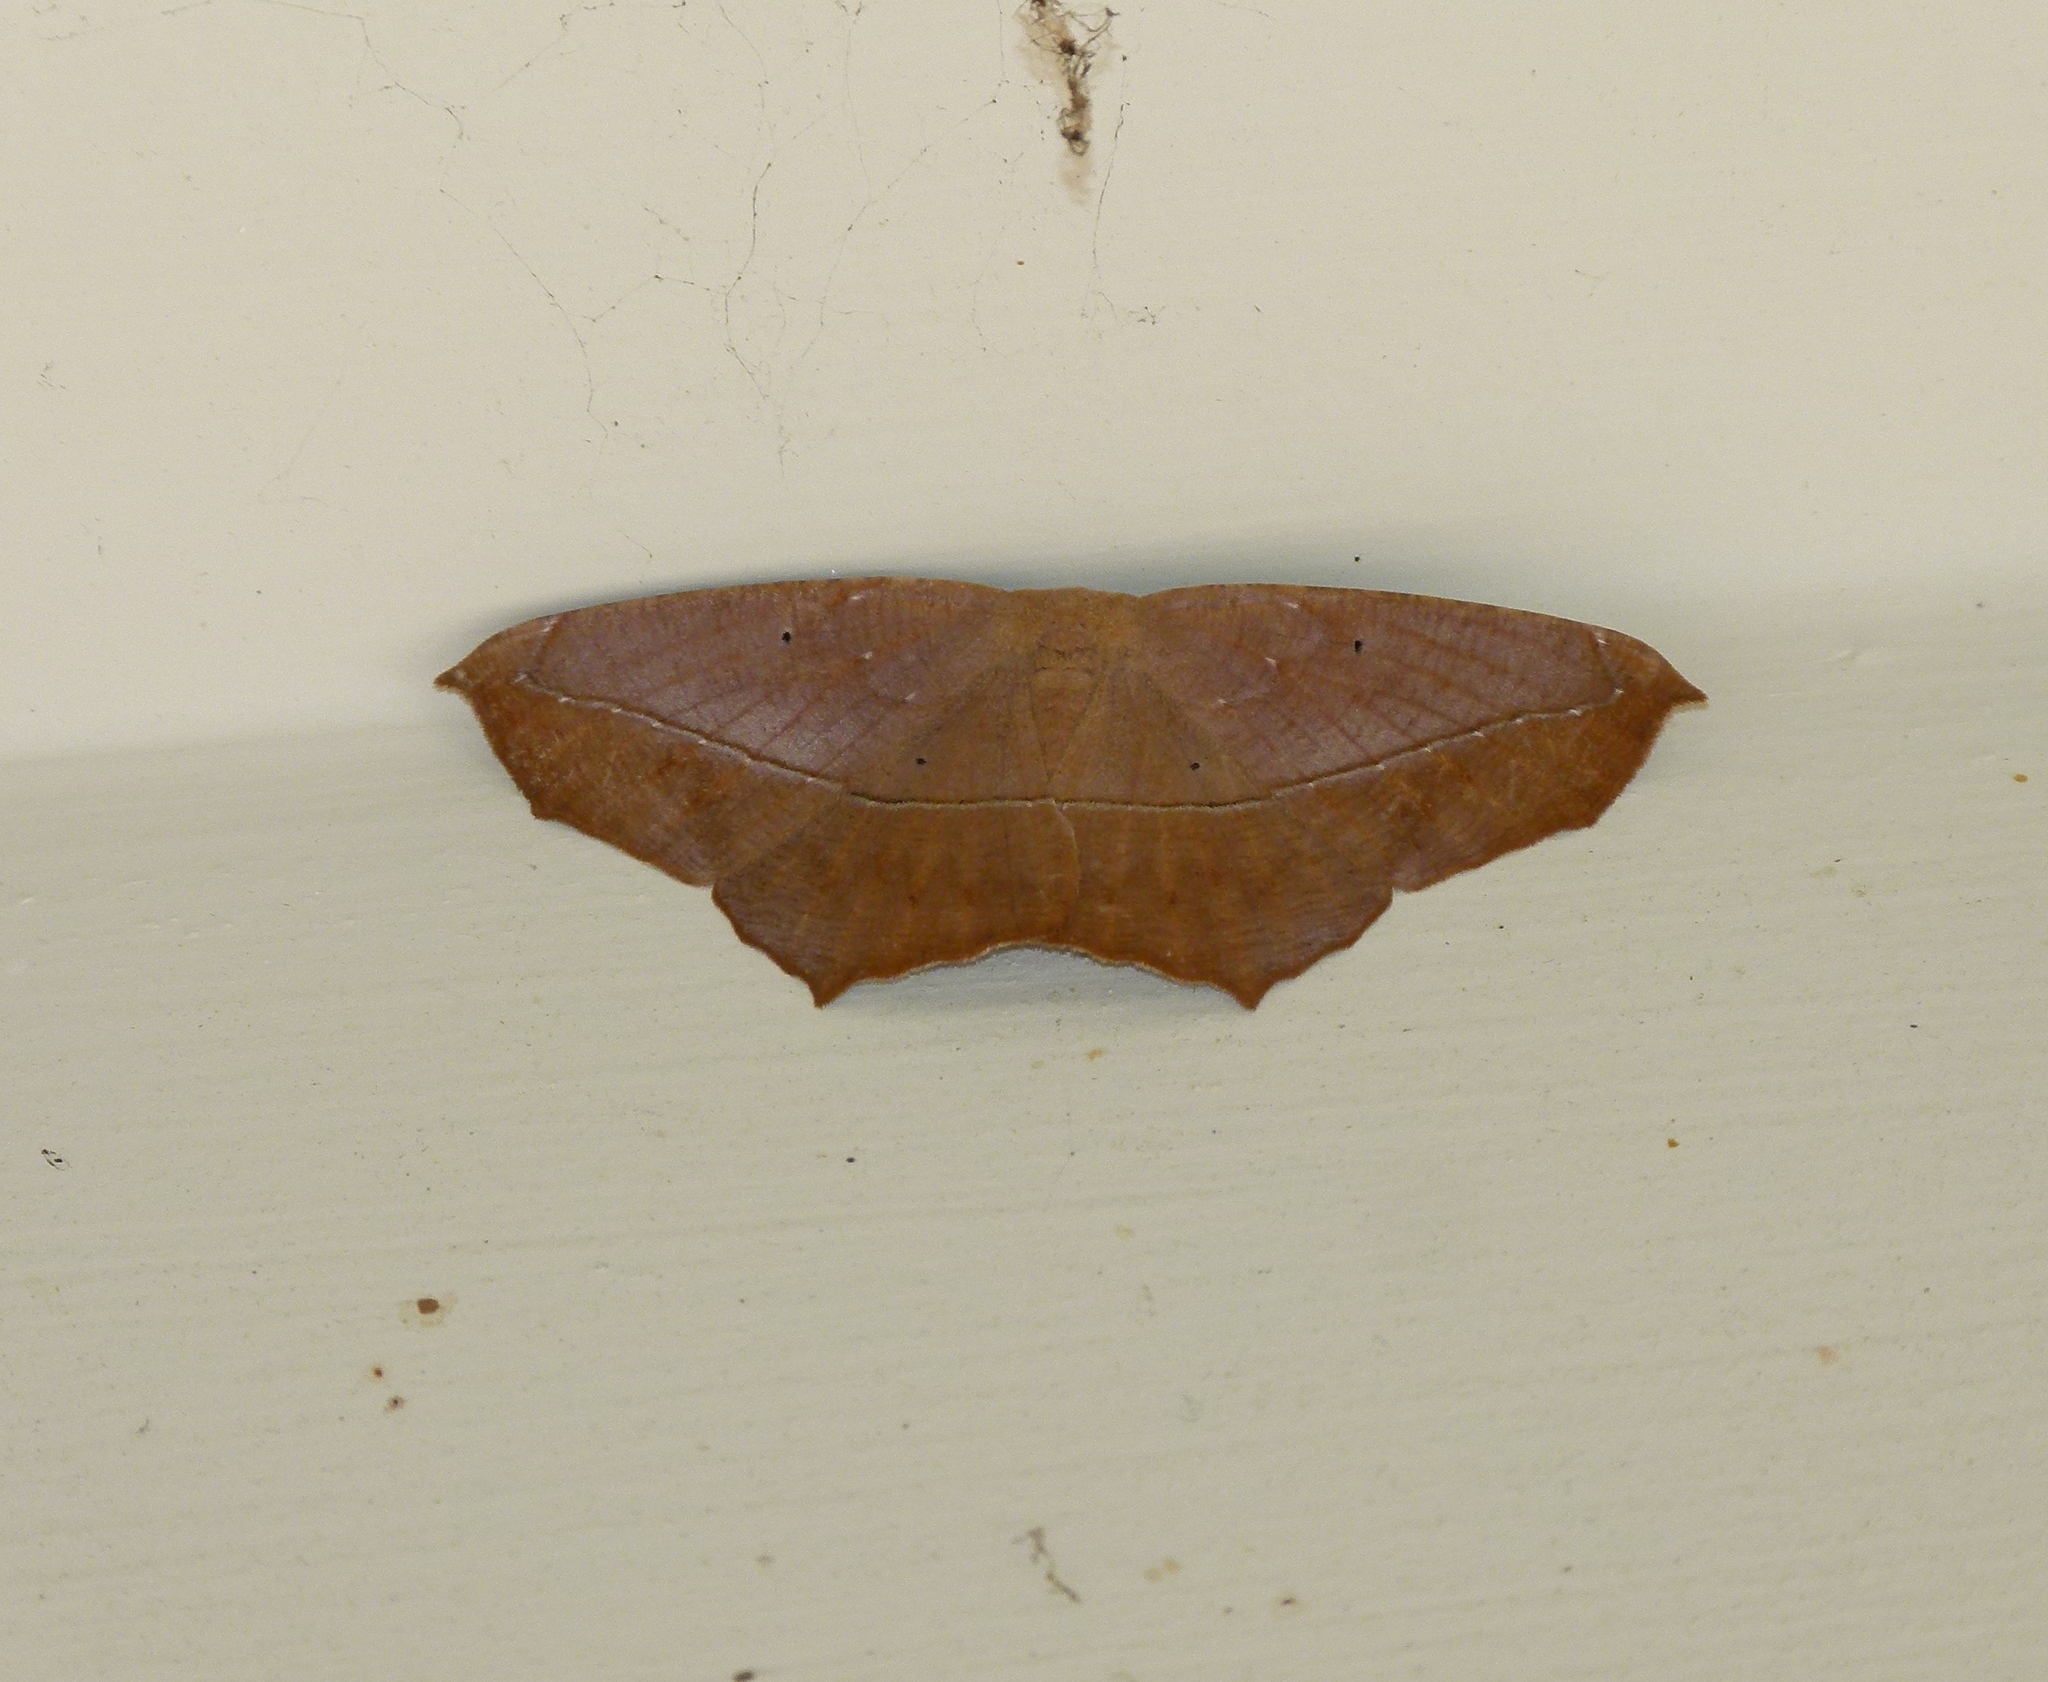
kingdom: Animalia
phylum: Arthropoda
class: Insecta
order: Lepidoptera
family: Geometridae
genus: Prochoerodes
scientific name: Prochoerodes lineola
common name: Large maple spanworm
